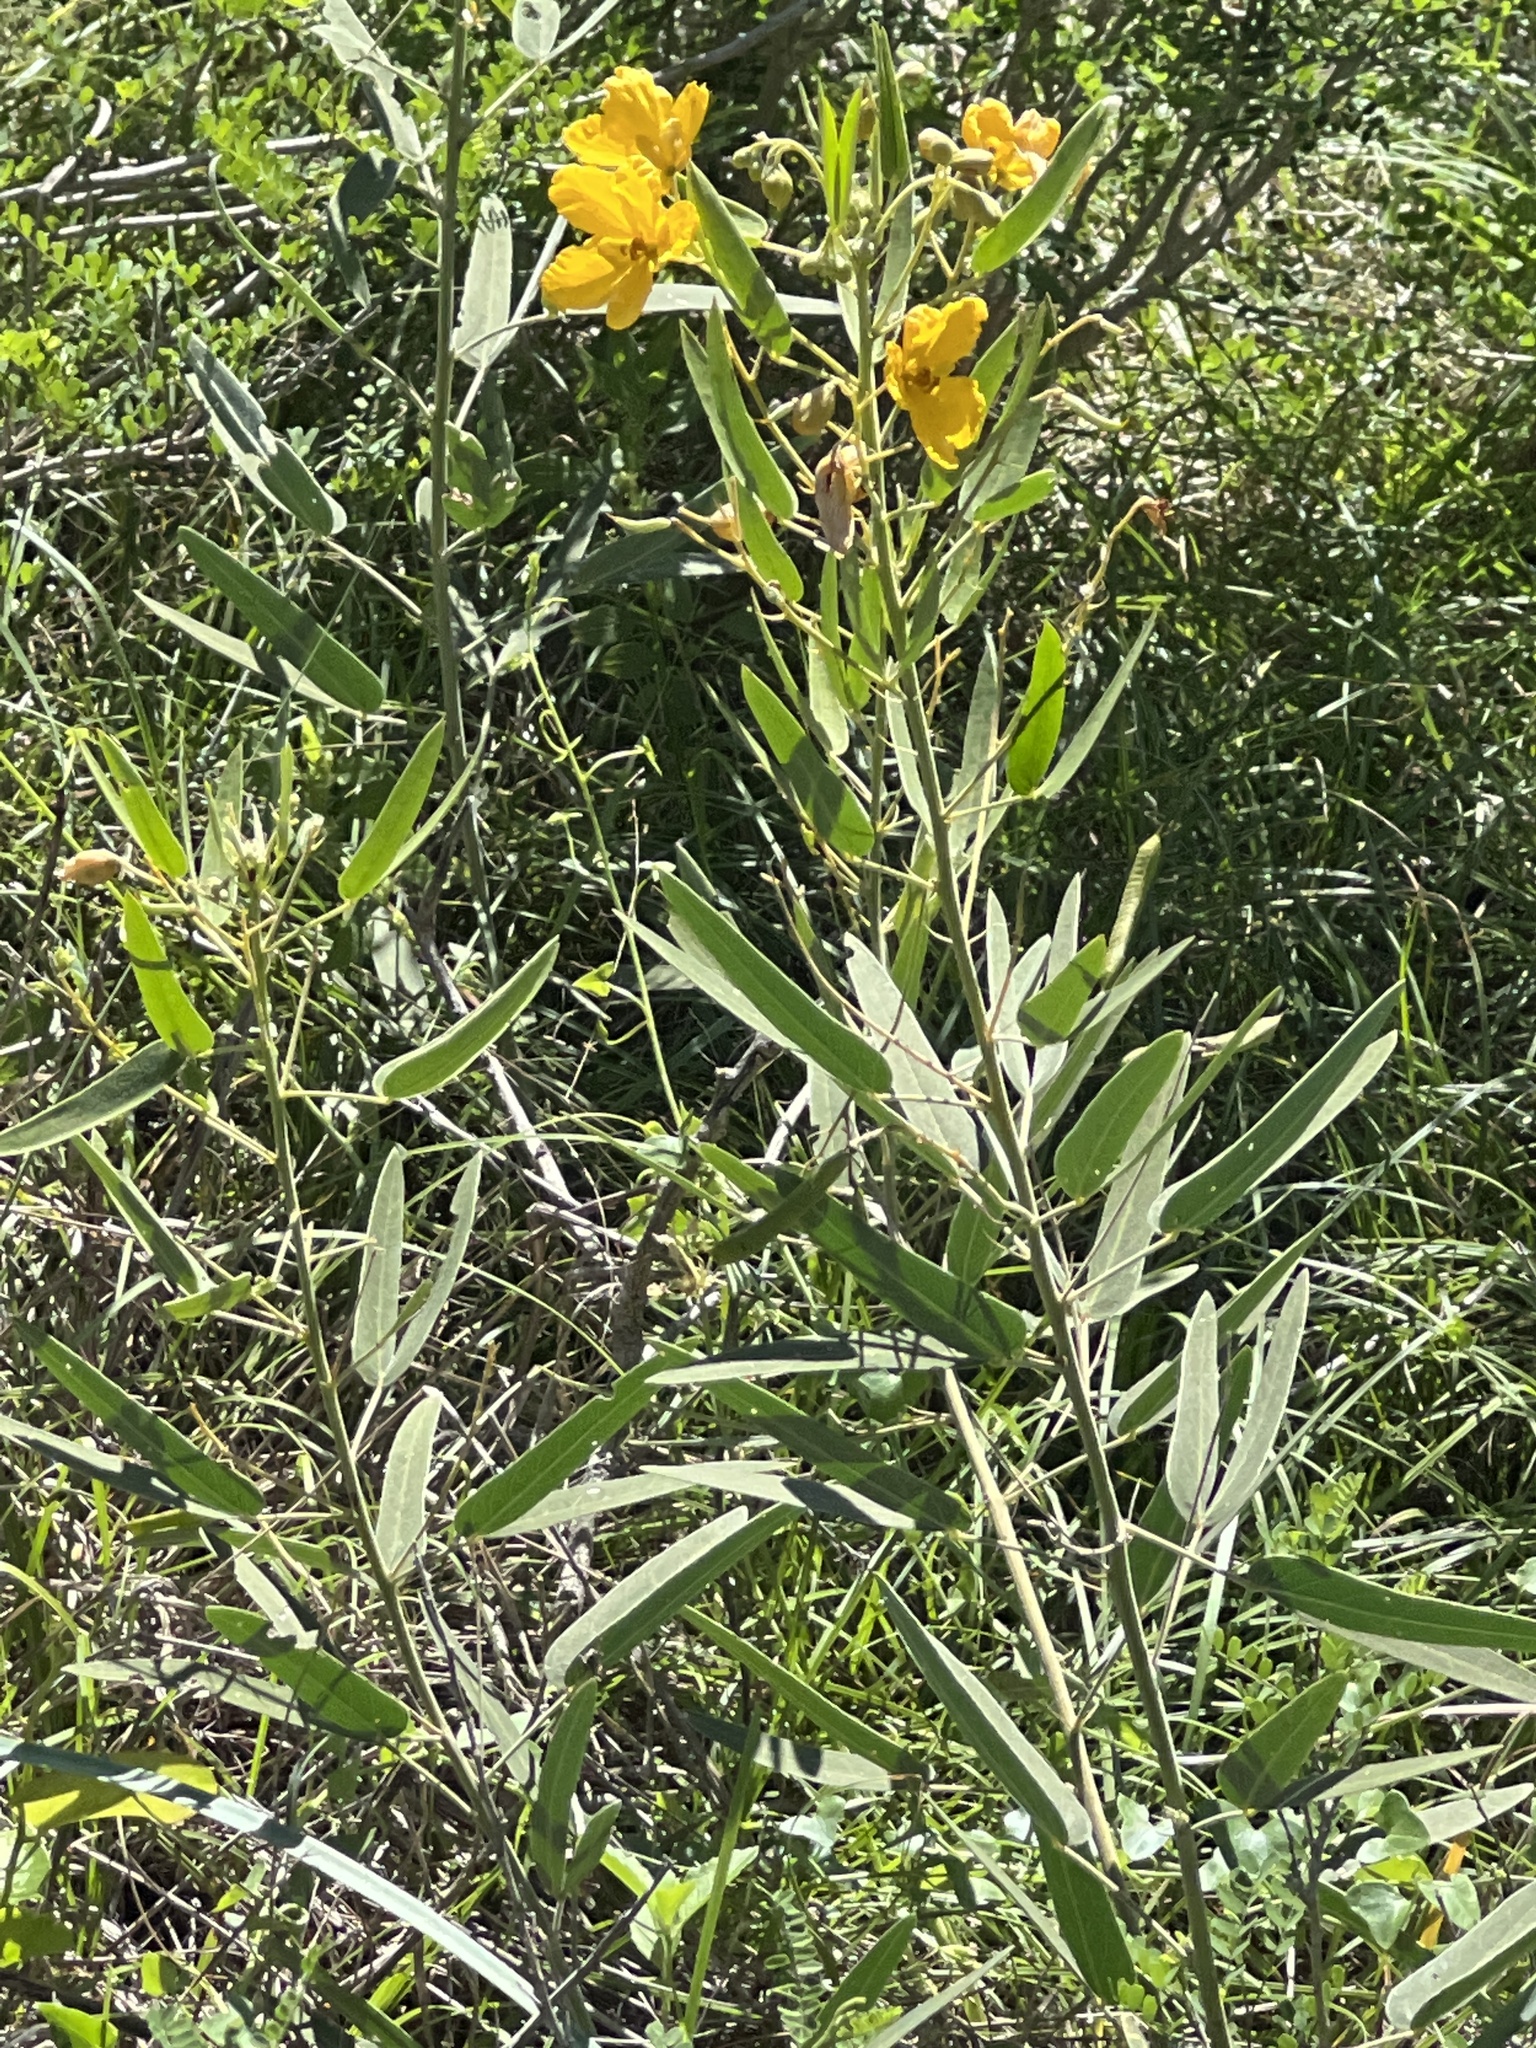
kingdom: Plantae
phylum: Tracheophyta
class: Magnoliopsida
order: Fabales
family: Fabaceae
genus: Senna
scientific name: Senna roemeriana
